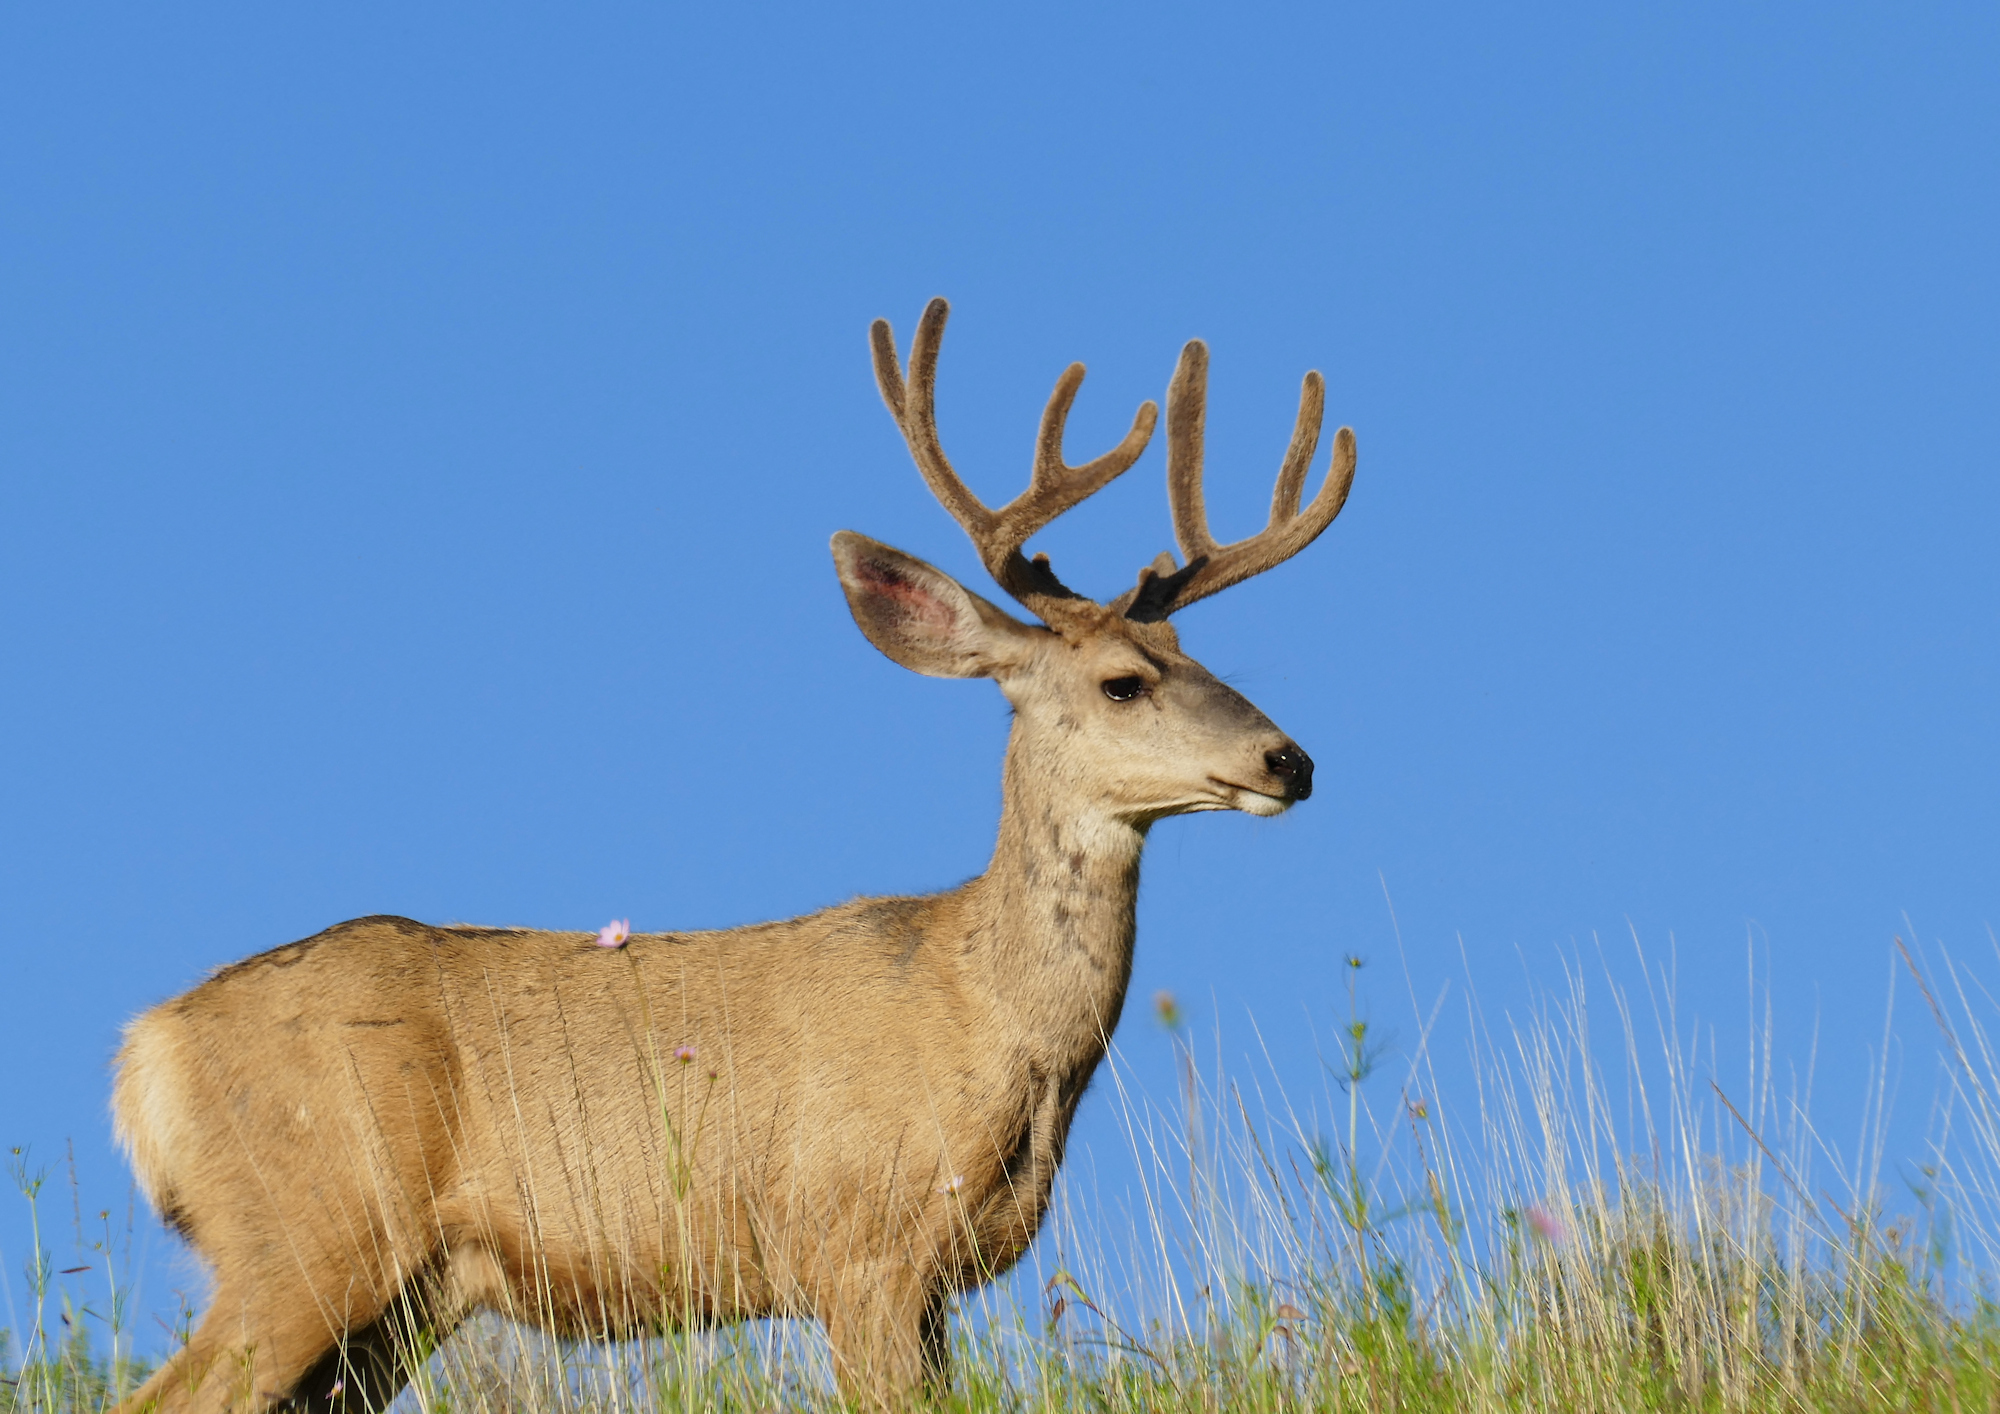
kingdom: Animalia
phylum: Chordata
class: Mammalia
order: Artiodactyla
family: Cervidae
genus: Odocoileus
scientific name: Odocoileus hemionus
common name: Mule deer
